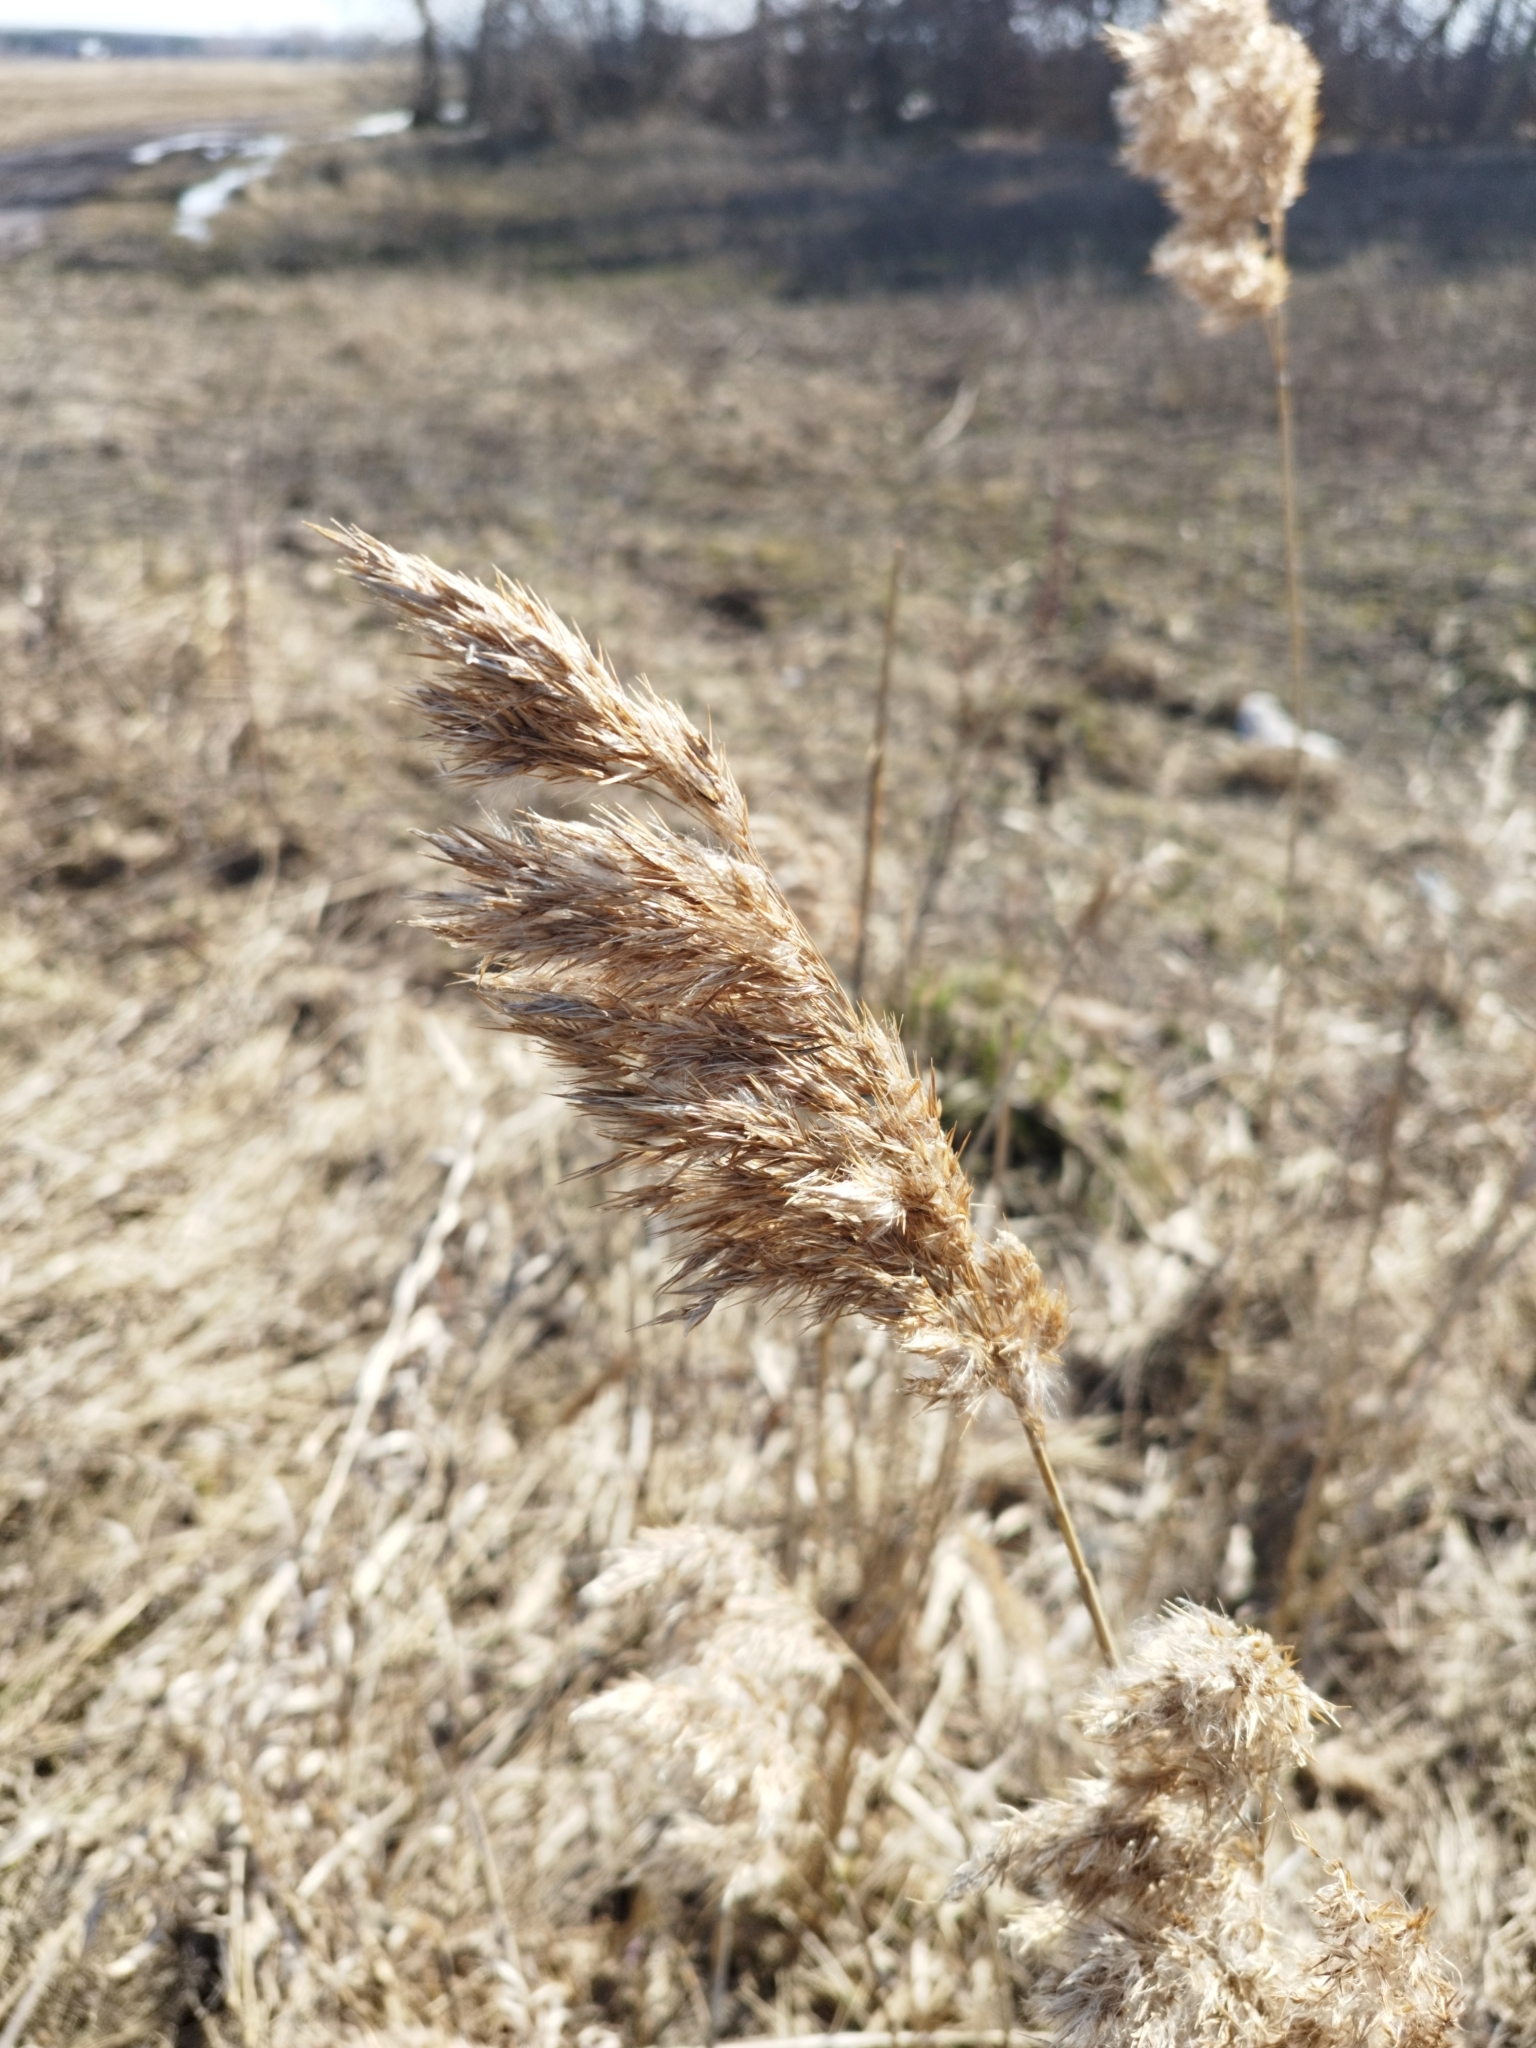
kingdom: Plantae
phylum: Tracheophyta
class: Liliopsida
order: Poales
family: Poaceae
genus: Phragmites
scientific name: Phragmites australis
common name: Common reed
